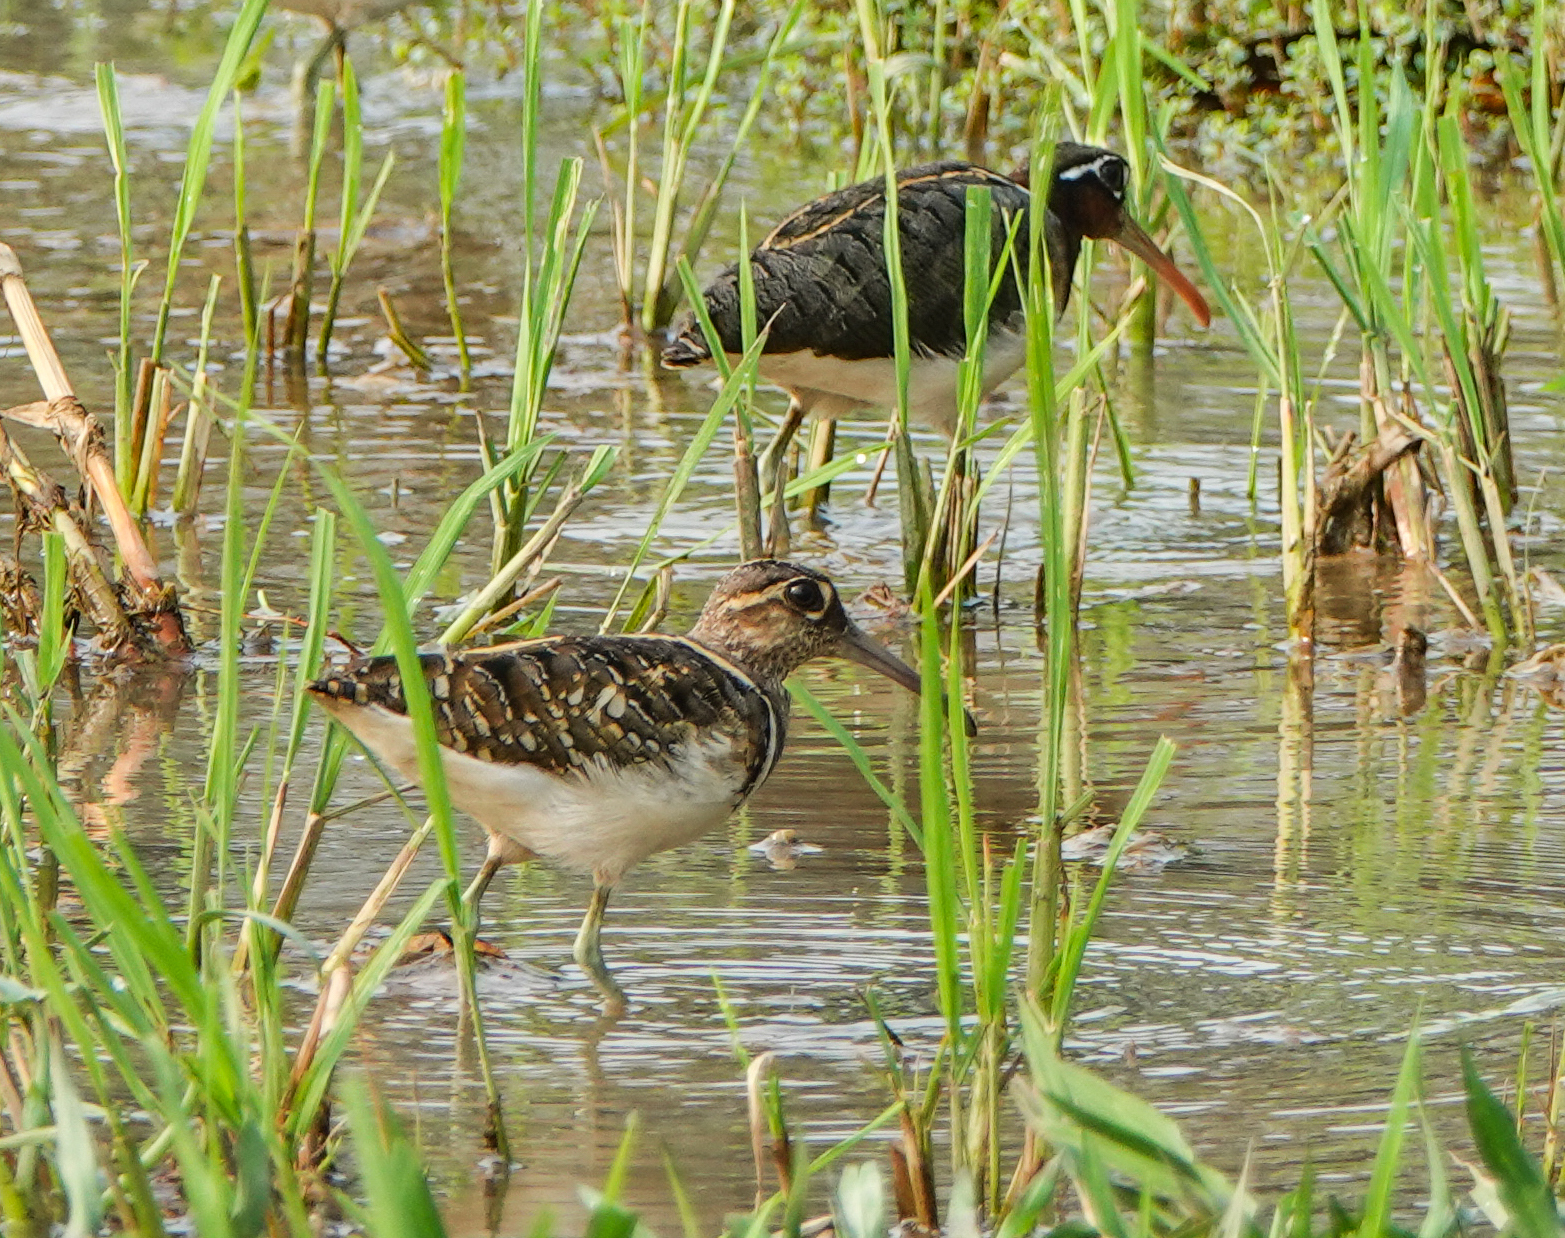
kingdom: Animalia
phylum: Chordata
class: Aves
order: Charadriiformes
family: Rostratulidae
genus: Rostratula
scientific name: Rostratula benghalensis
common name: Greater painted-snipe
